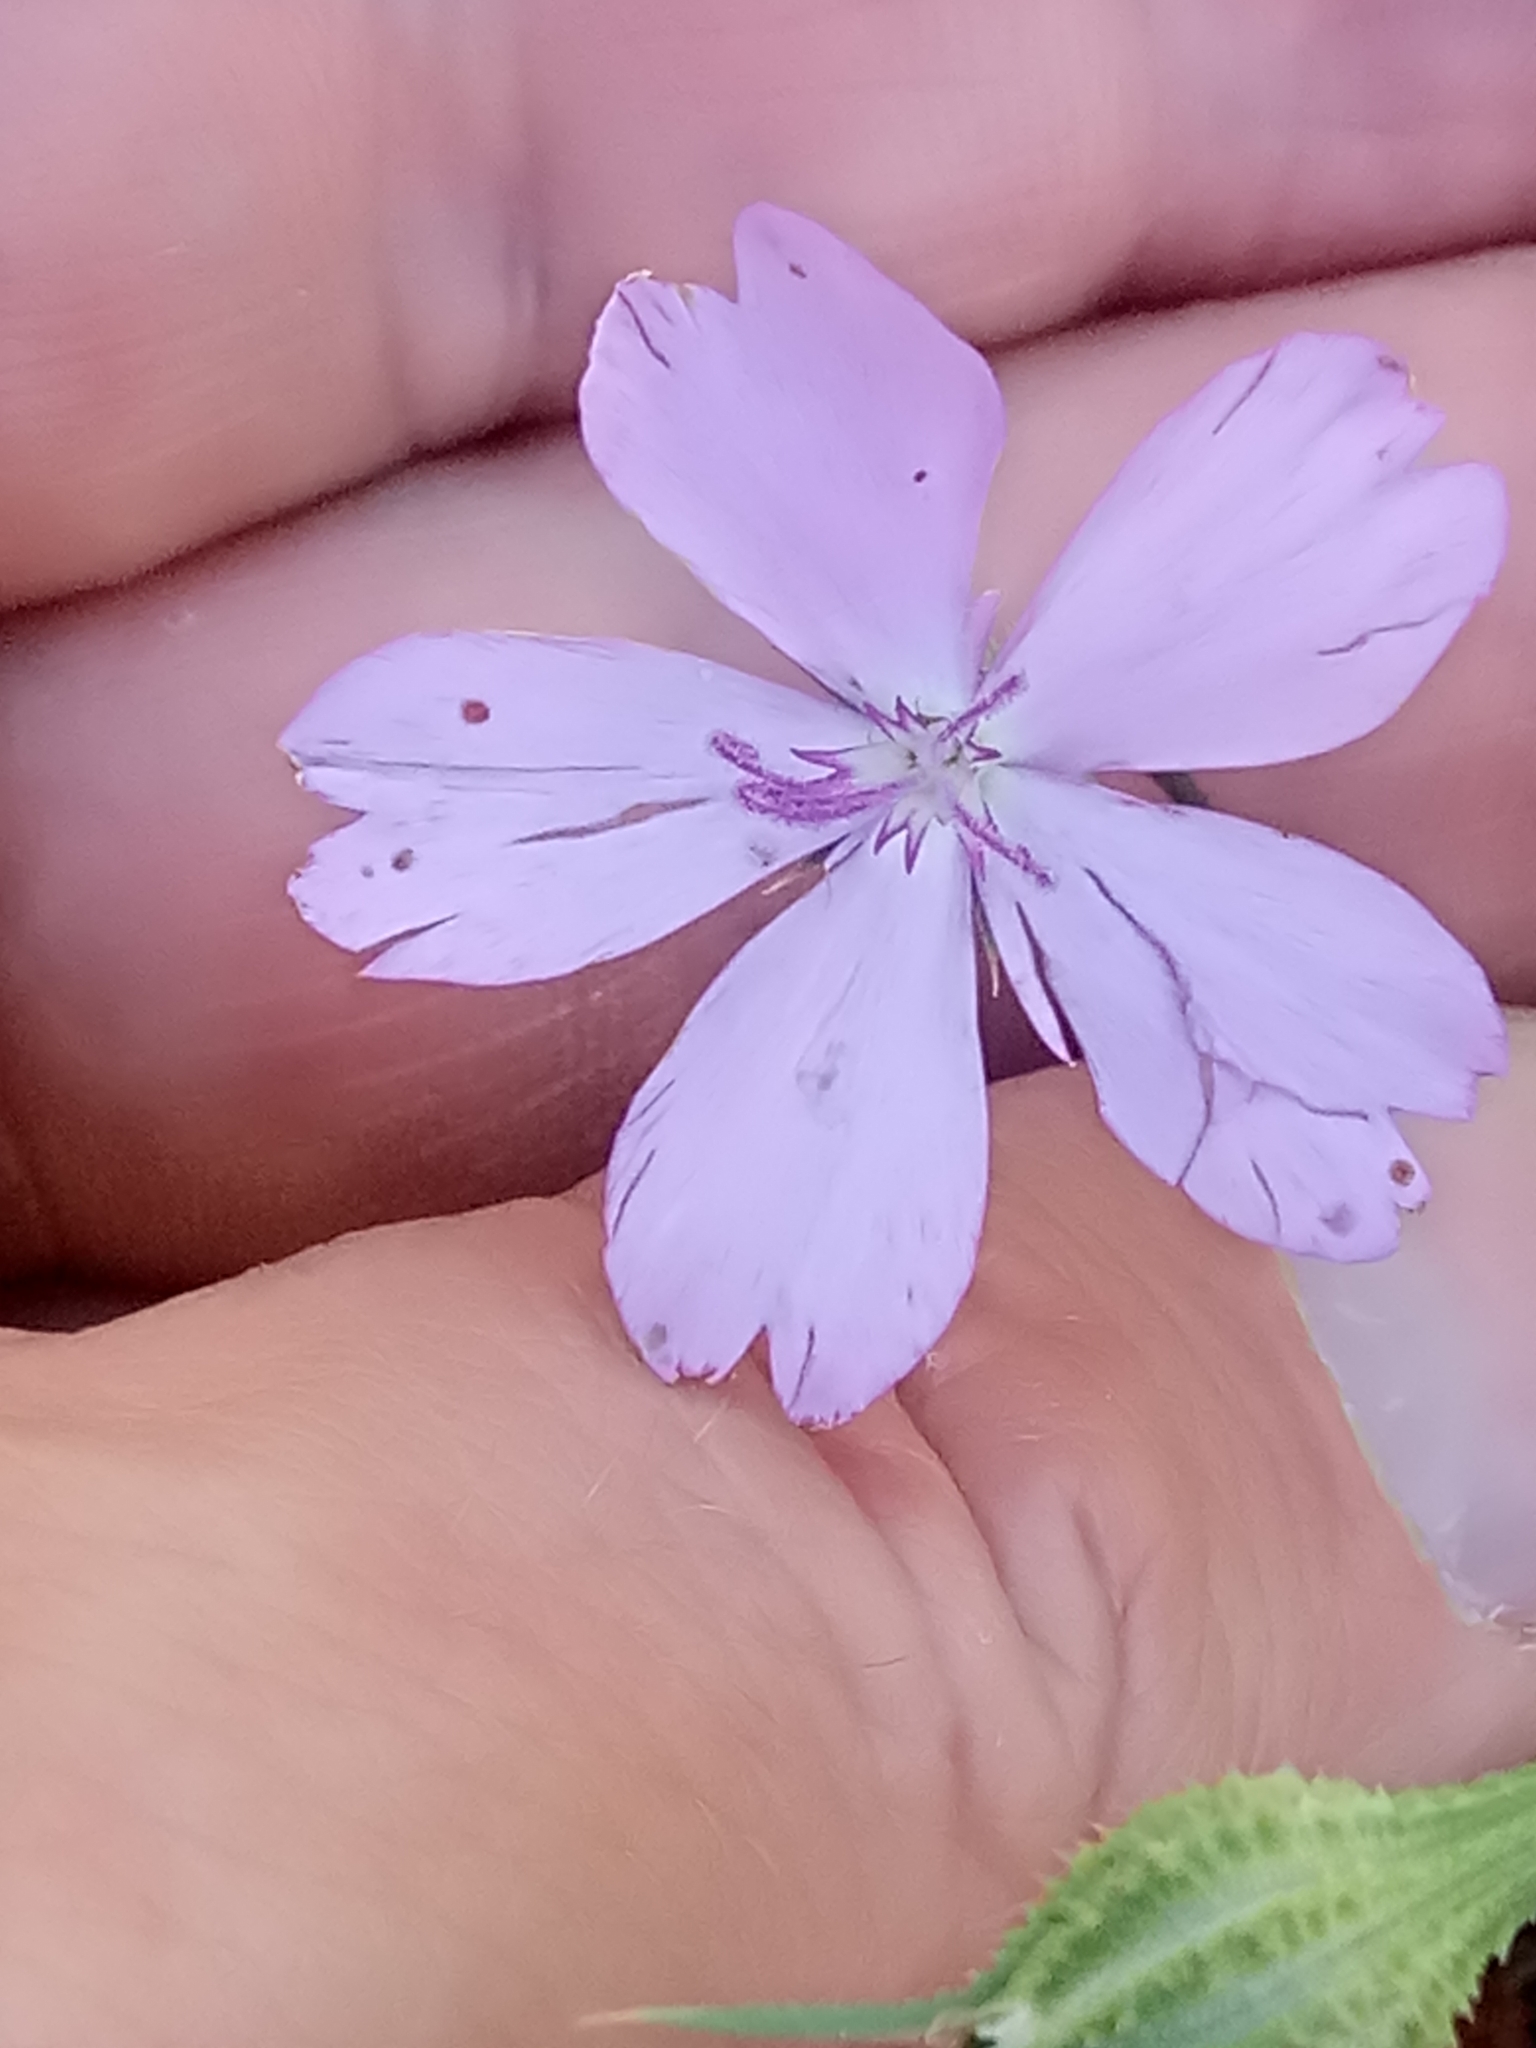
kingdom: Plantae
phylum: Tracheophyta
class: Magnoliopsida
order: Caryophyllales
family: Caryophyllaceae
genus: Eudianthe
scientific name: Eudianthe coeli-rosa
